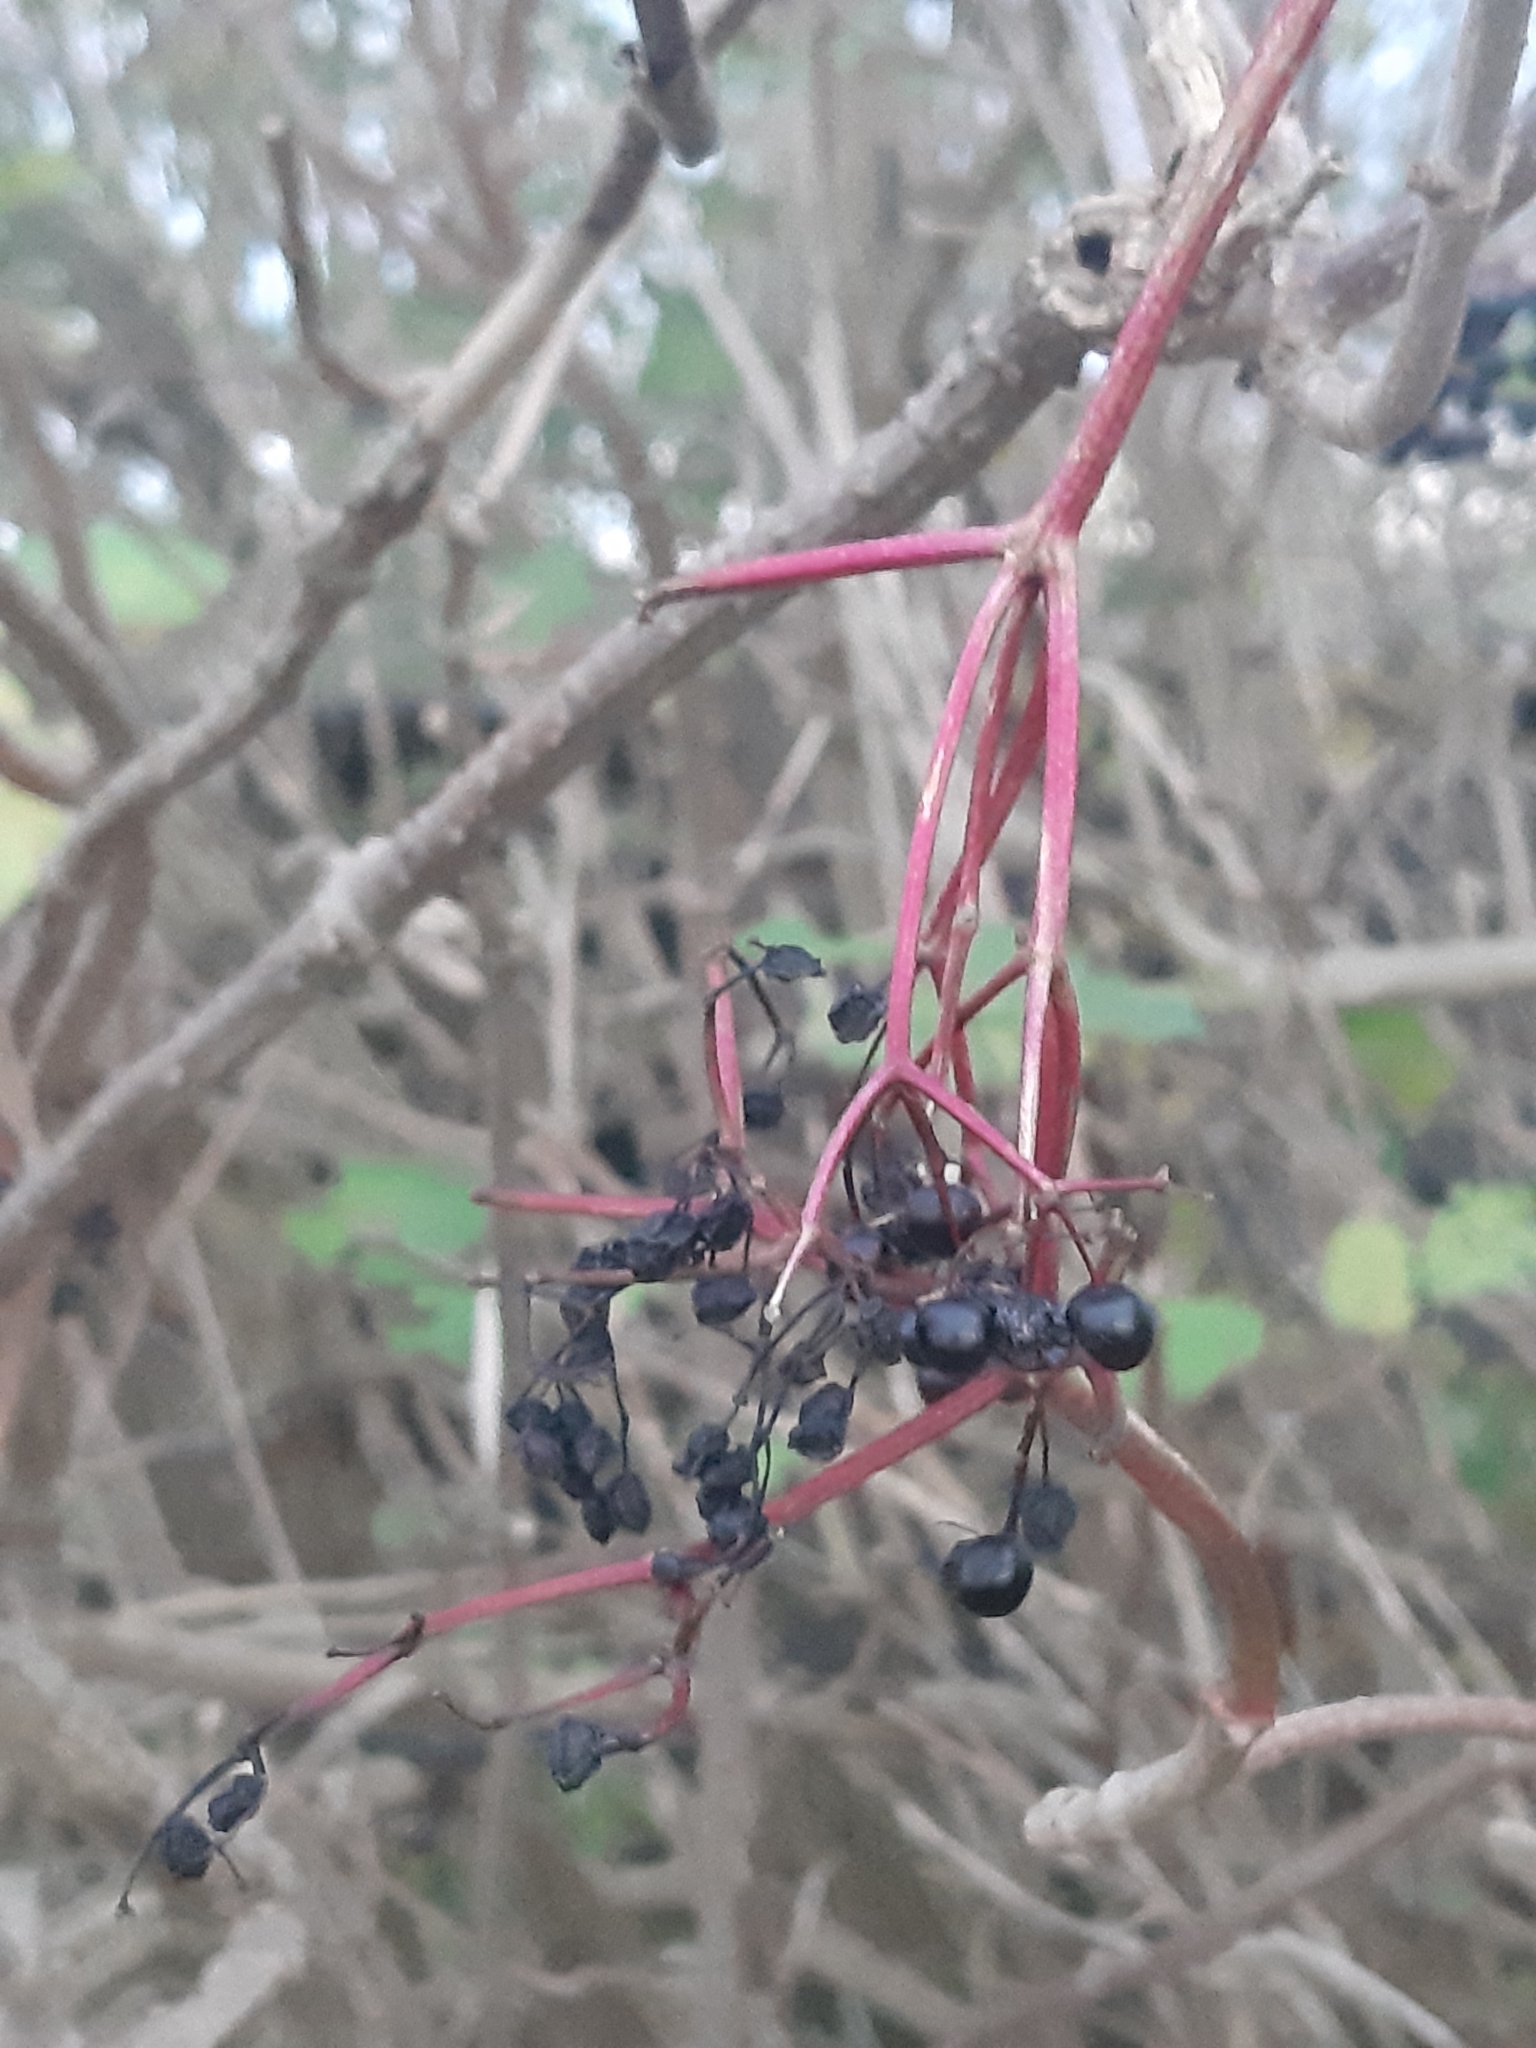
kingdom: Plantae
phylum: Tracheophyta
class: Magnoliopsida
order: Dipsacales
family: Viburnaceae
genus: Sambucus
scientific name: Sambucus nigra
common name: Elder
